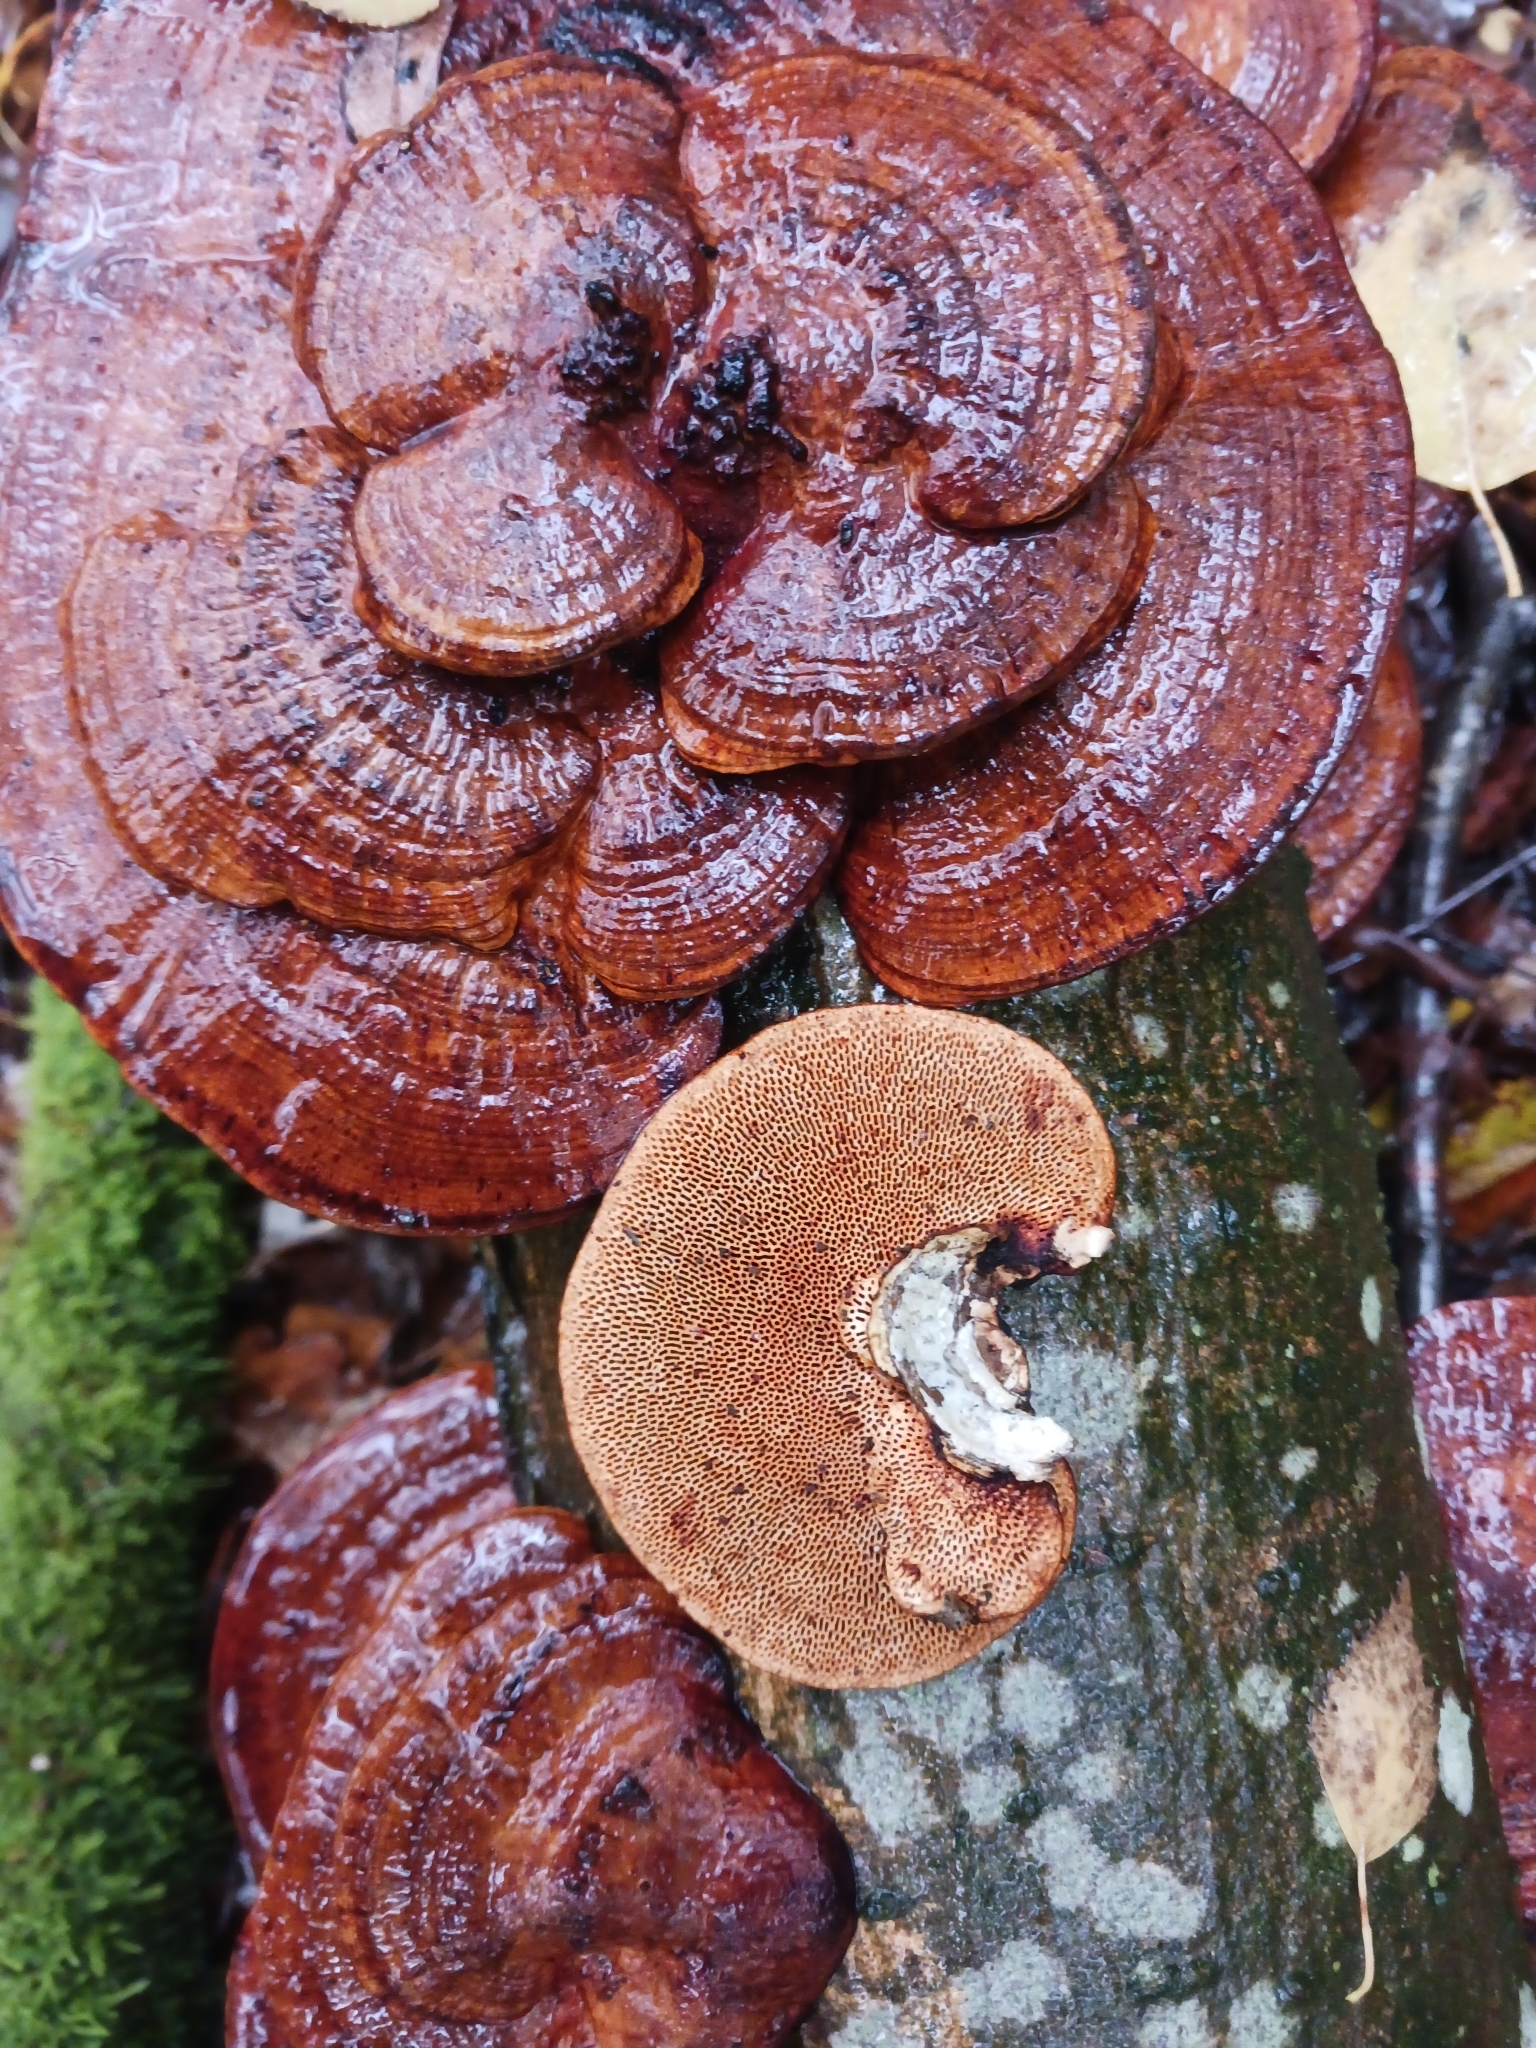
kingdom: Fungi
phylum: Basidiomycota
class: Agaricomycetes
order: Polyporales
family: Polyporaceae
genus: Daedaleopsis
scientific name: Daedaleopsis confragosa
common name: Blushing bracket
